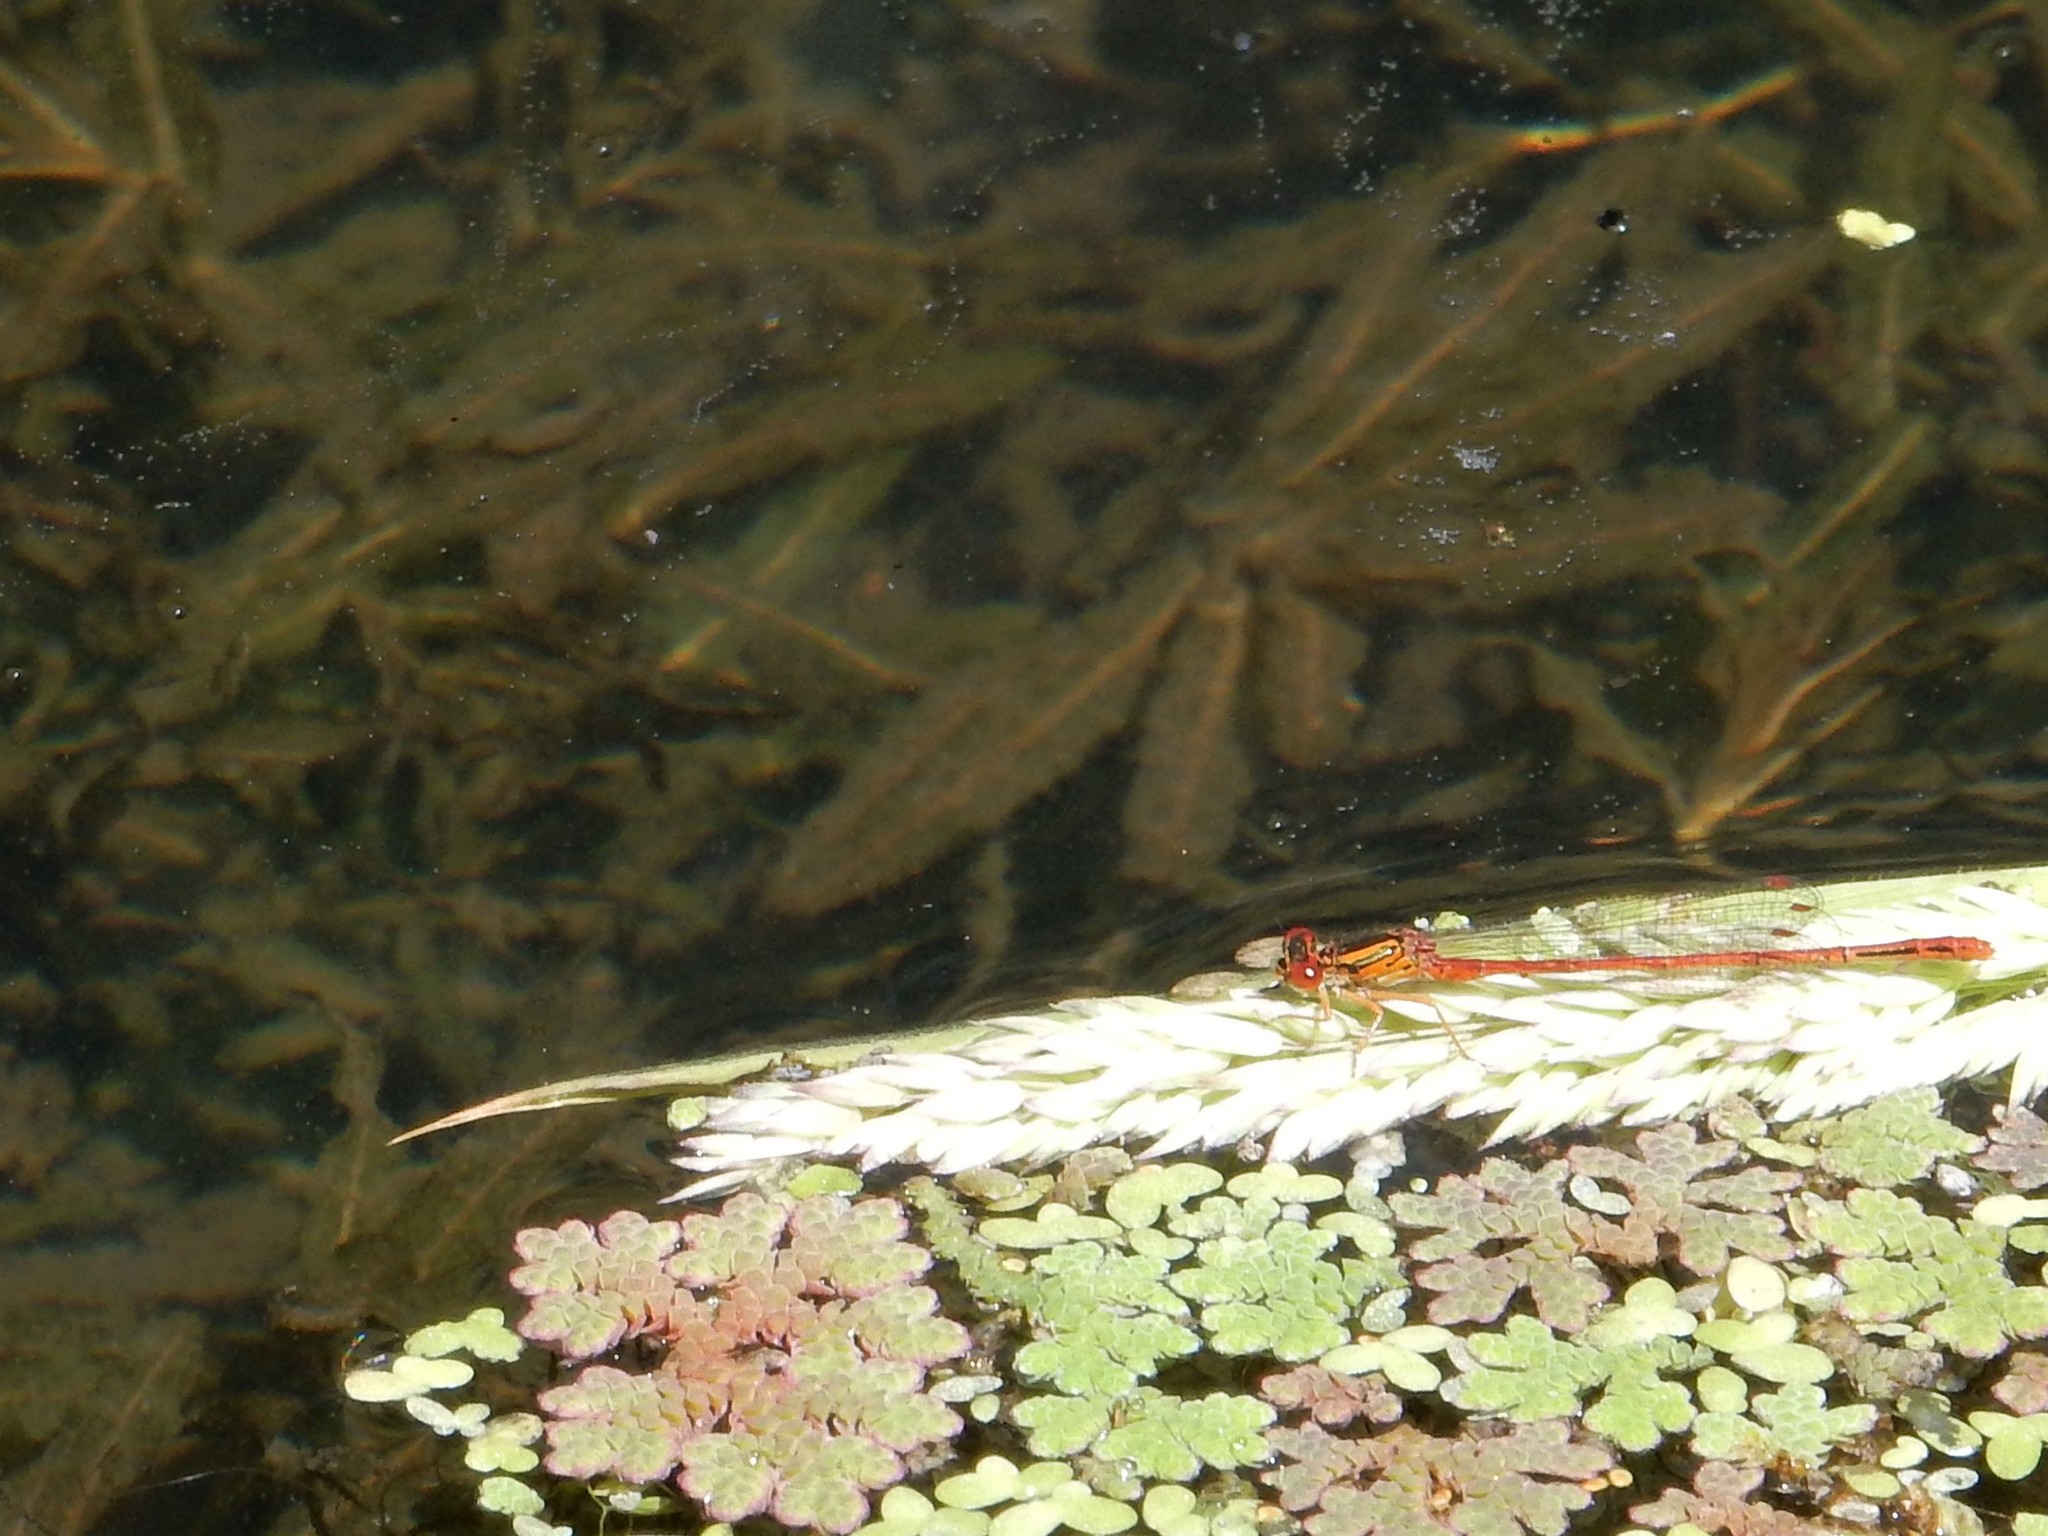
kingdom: Animalia
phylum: Arthropoda
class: Insecta
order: Odonata
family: Coenagrionidae
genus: Xanthocnemis
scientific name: Xanthocnemis zealandica
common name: Common redcoat damselfly
